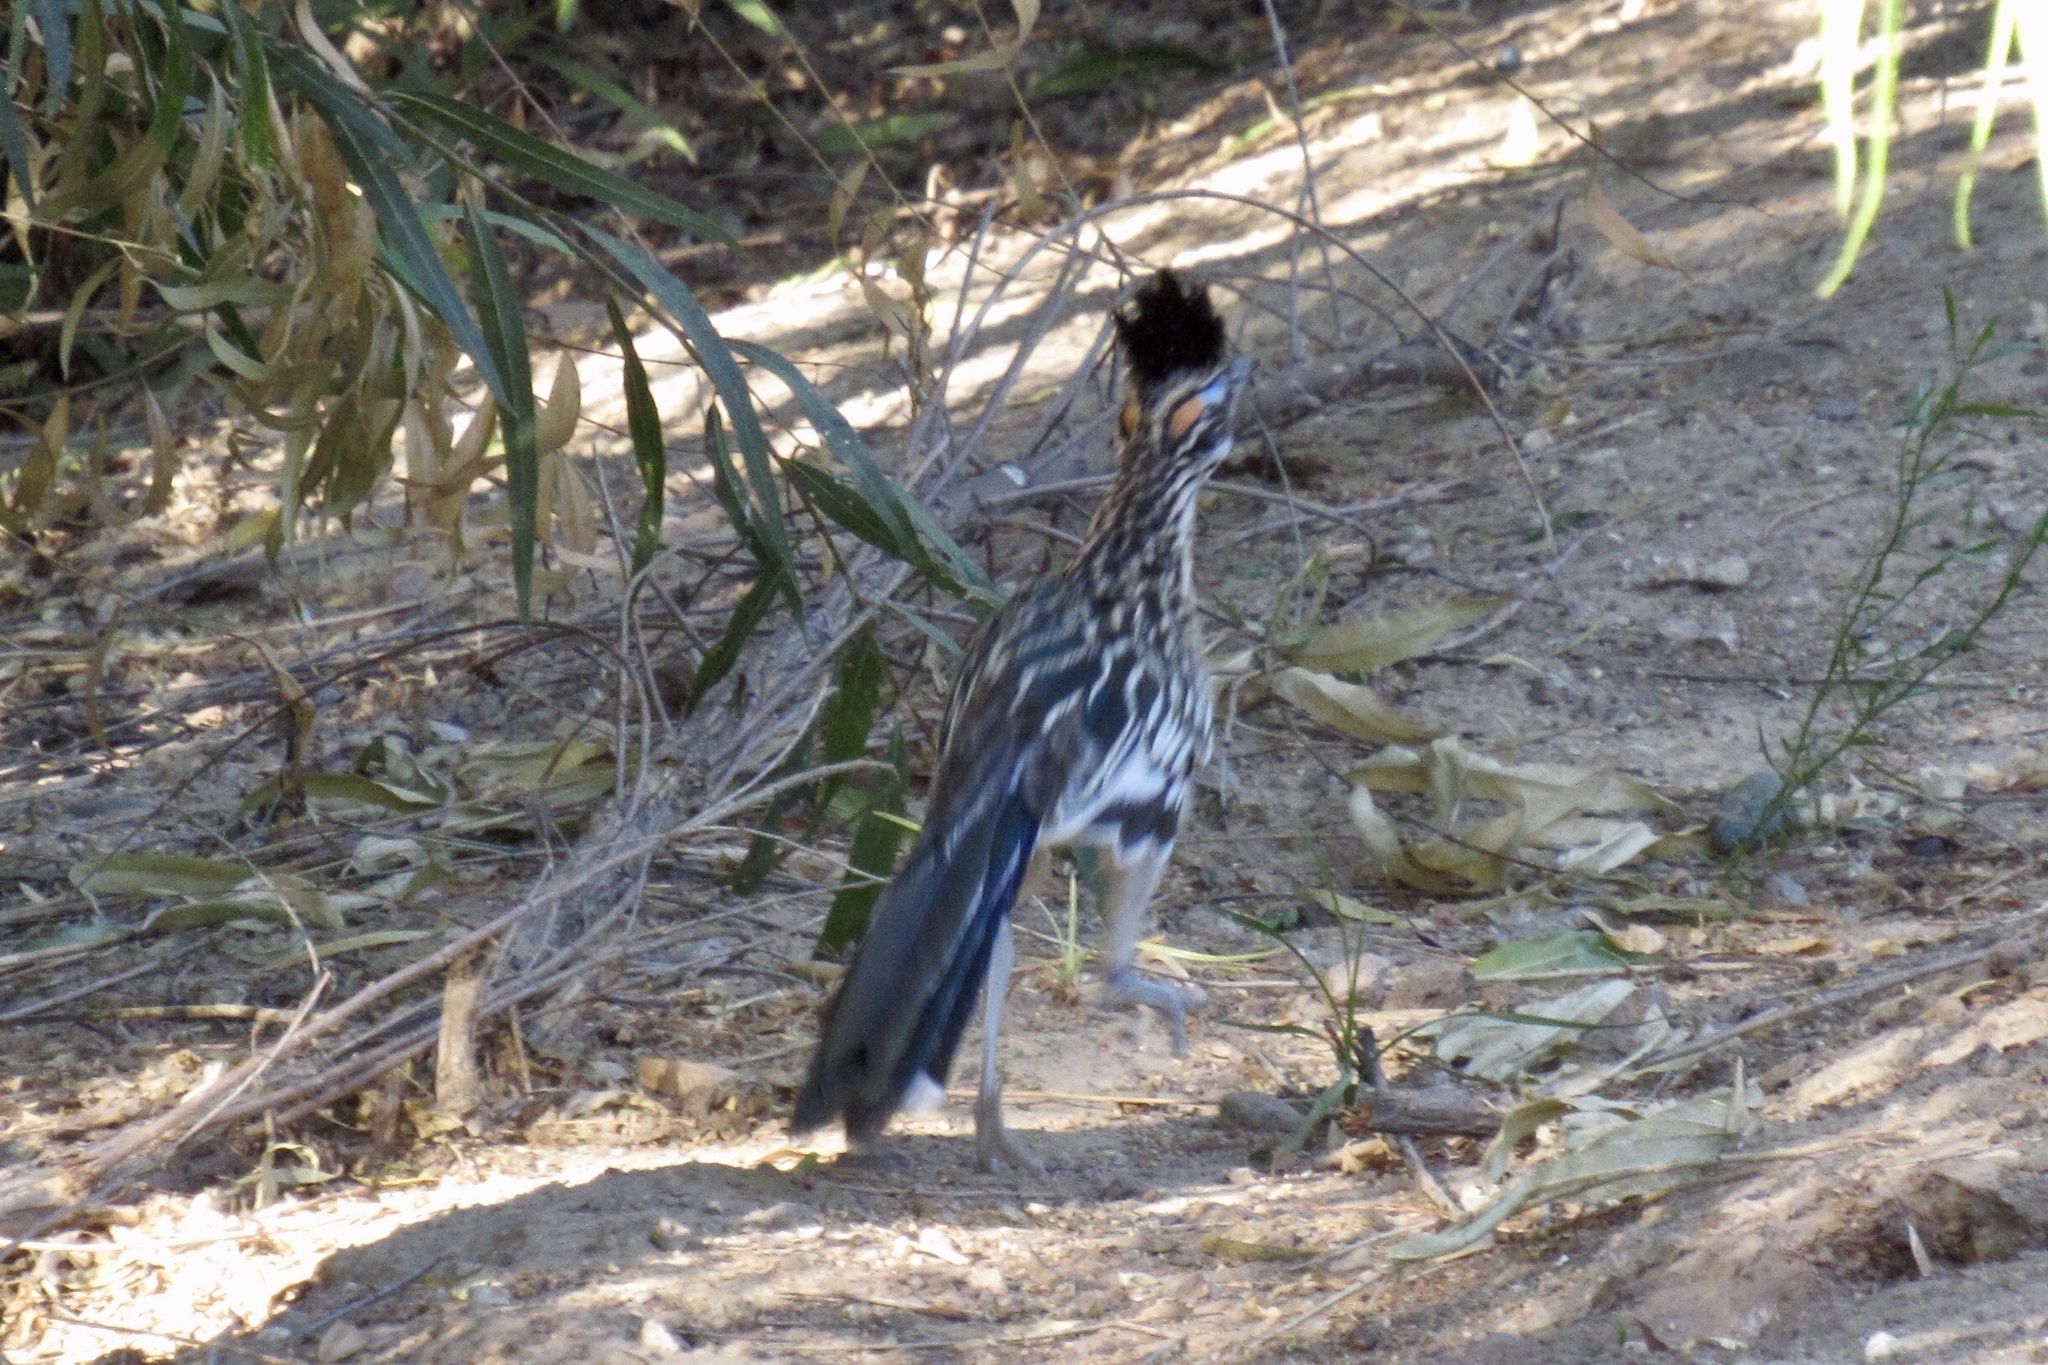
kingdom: Animalia
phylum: Chordata
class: Aves
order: Cuculiformes
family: Cuculidae
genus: Geococcyx
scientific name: Geococcyx californianus
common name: Greater roadrunner
